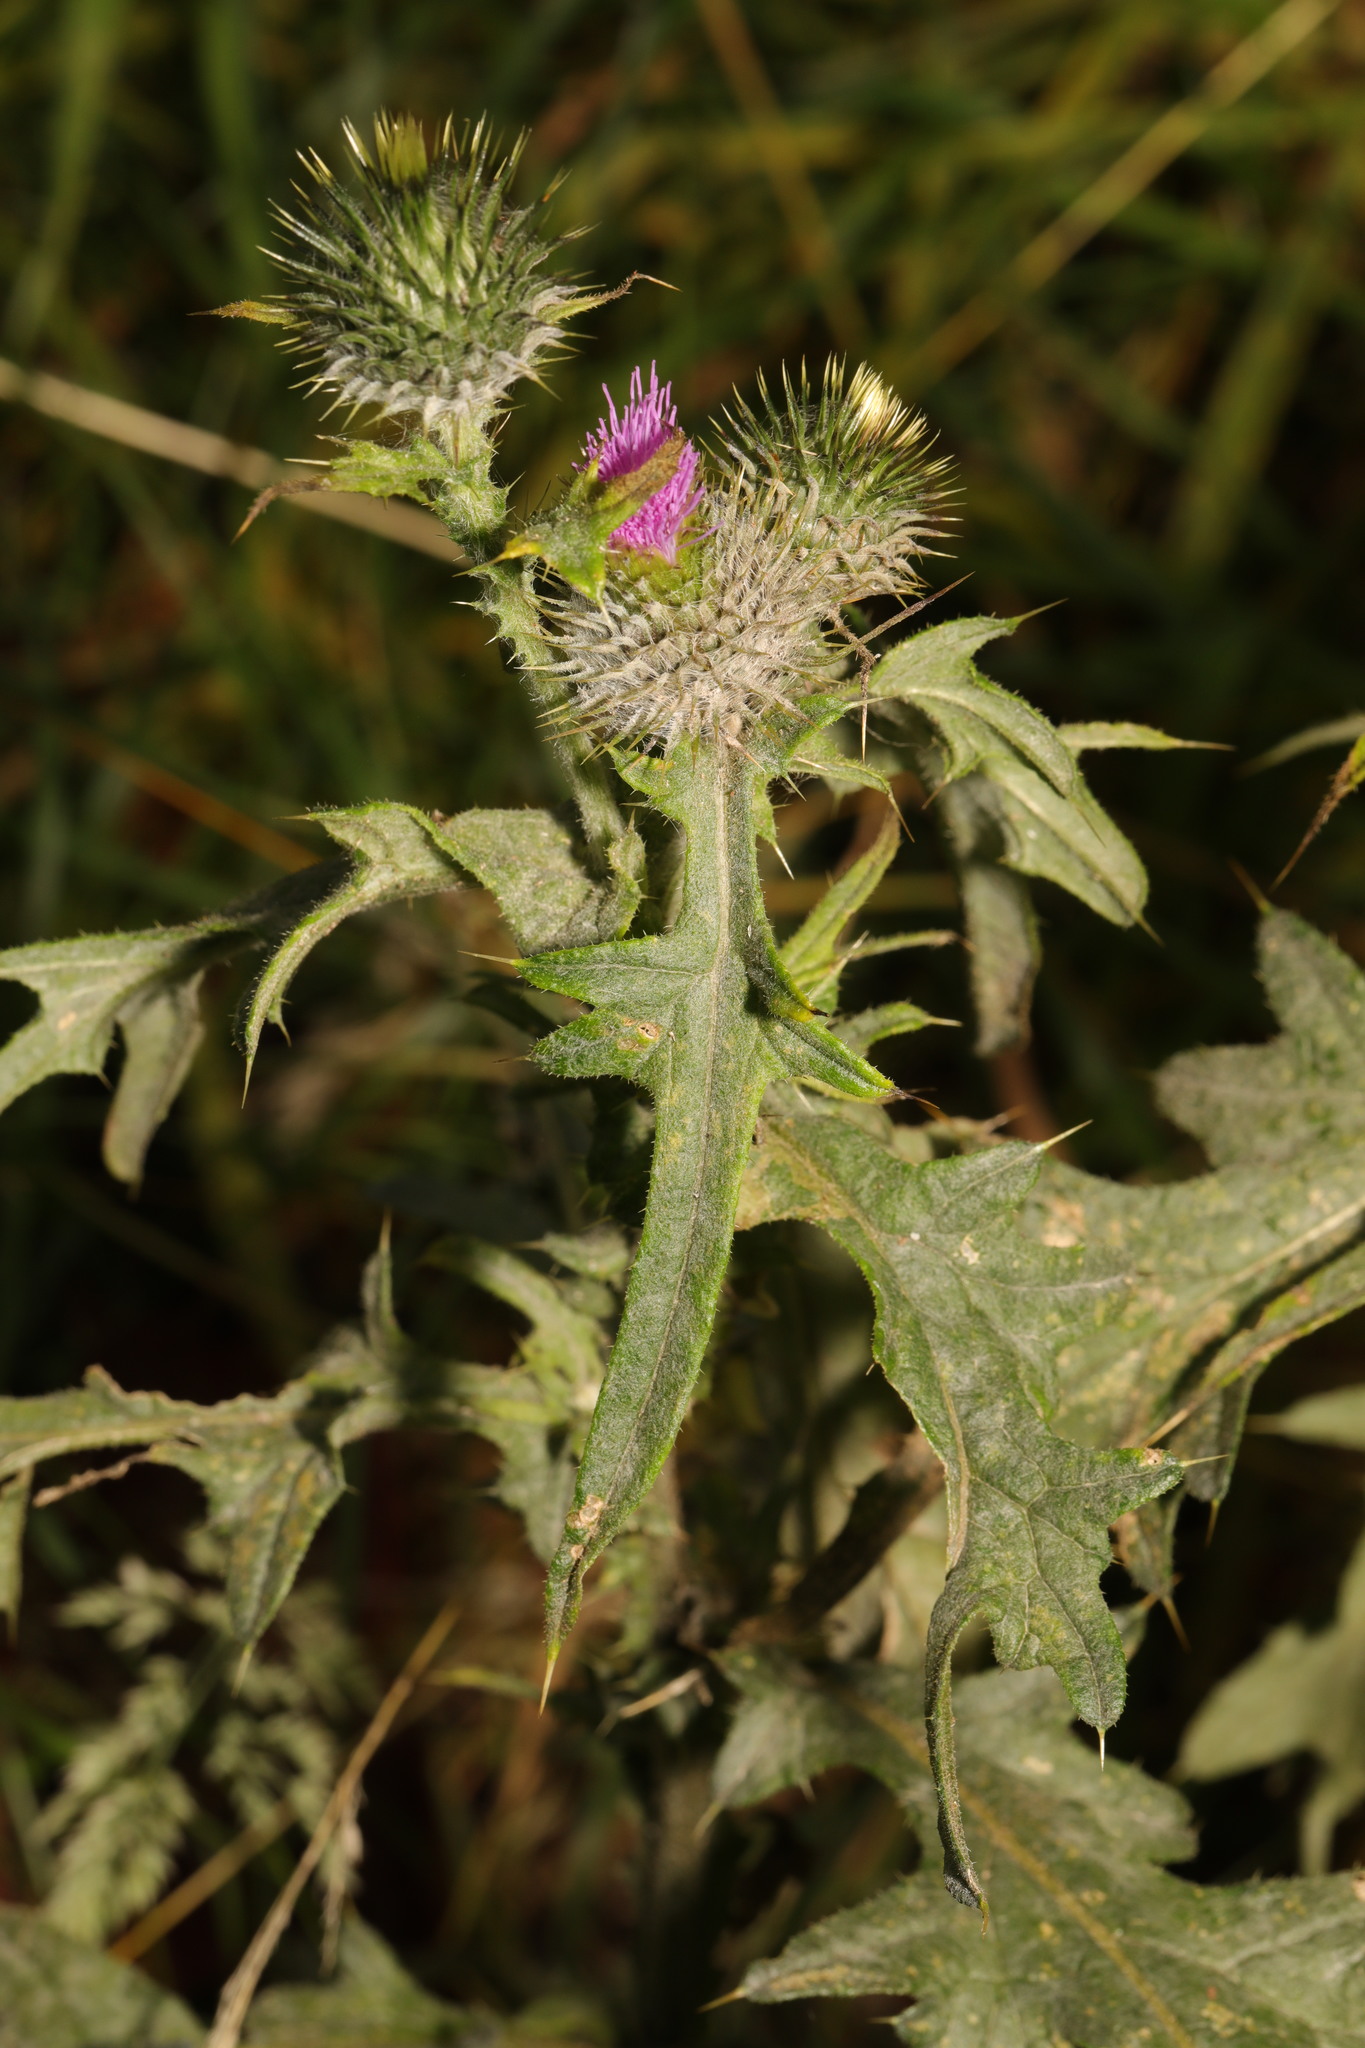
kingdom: Plantae
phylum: Tracheophyta
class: Magnoliopsida
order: Asterales
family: Asteraceae
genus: Cirsium
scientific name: Cirsium vulgare
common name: Bull thistle
